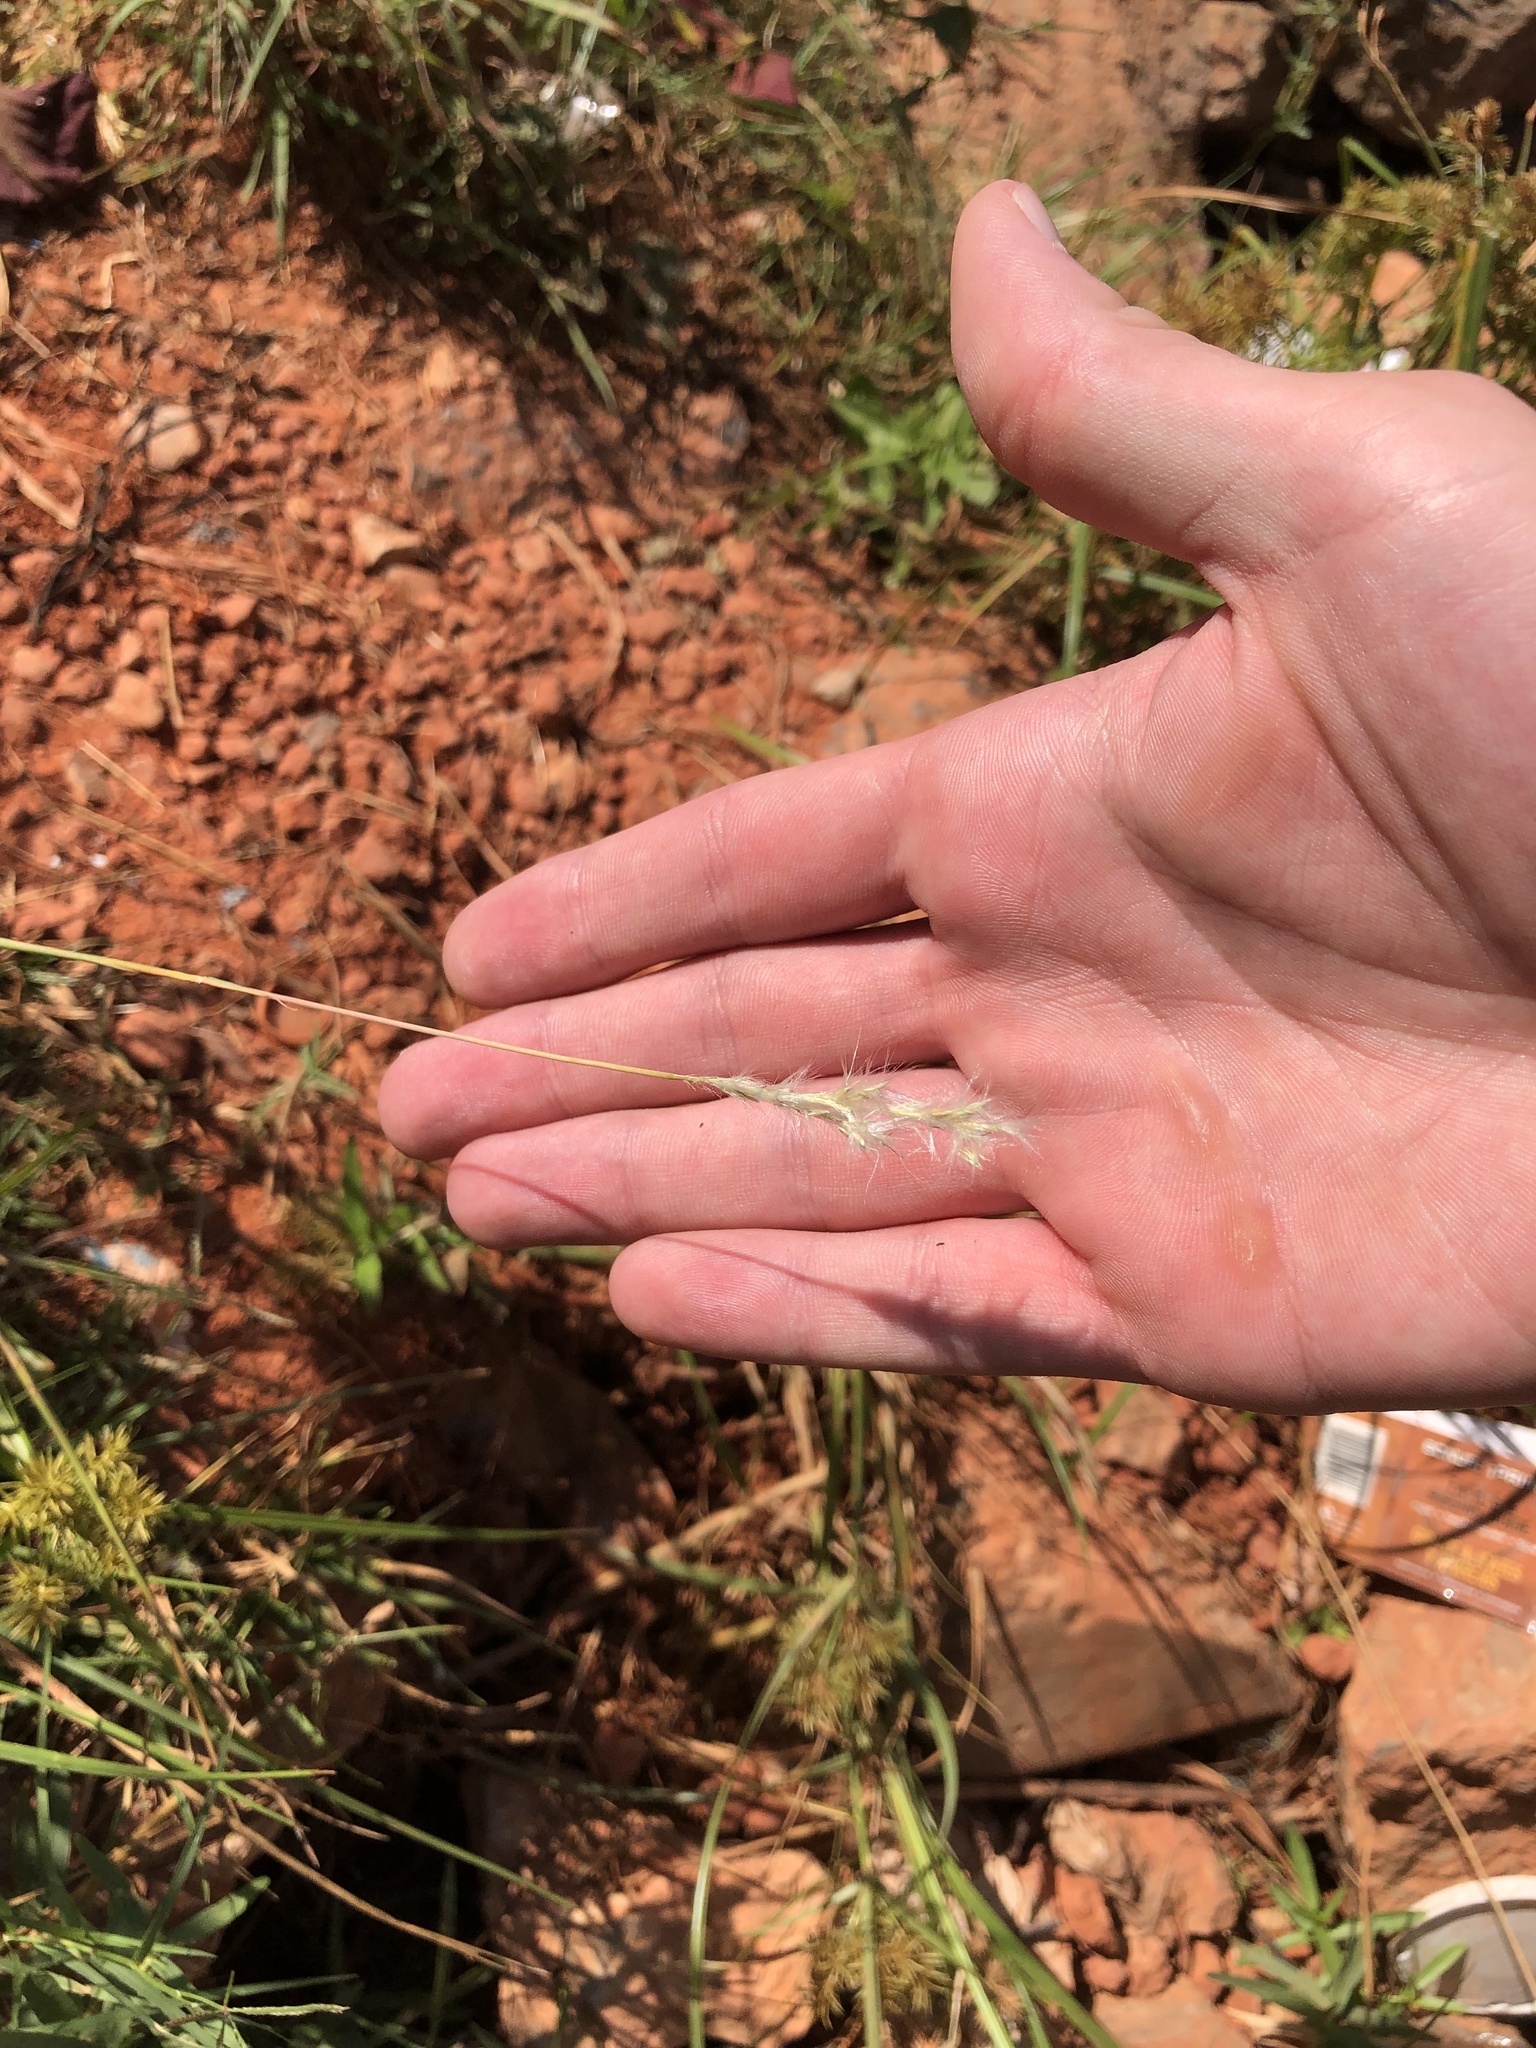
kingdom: Plantae
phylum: Tracheophyta
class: Liliopsida
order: Poales
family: Poaceae
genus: Bothriochloa
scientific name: Bothriochloa torreyana
